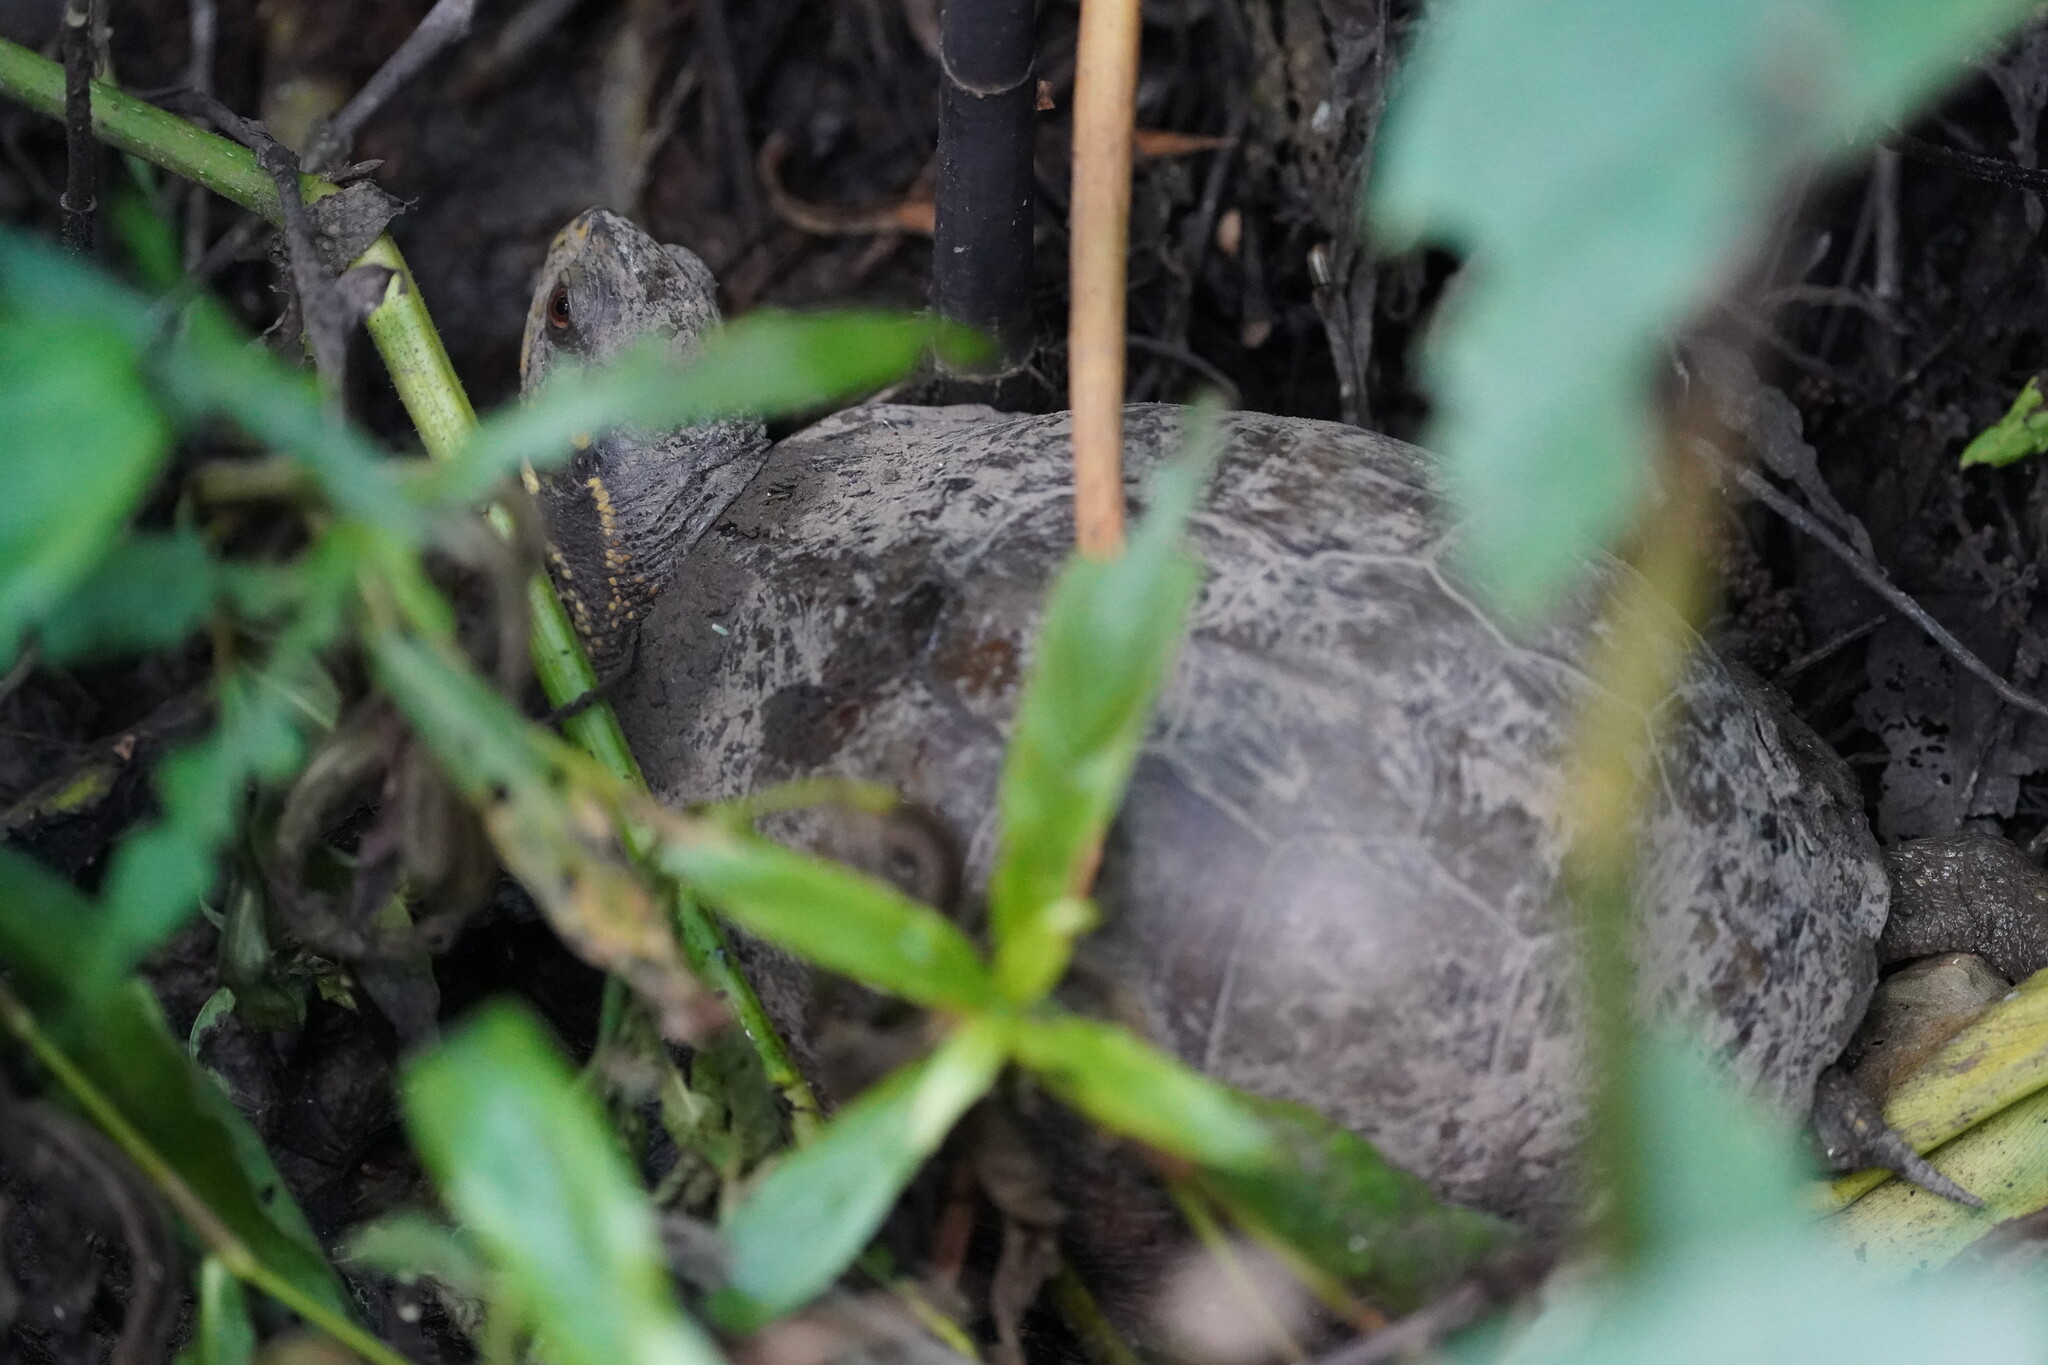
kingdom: Animalia
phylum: Chordata
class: Testudines
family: Emydidae
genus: Terrapene
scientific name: Terrapene carolina
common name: Common box turtle
